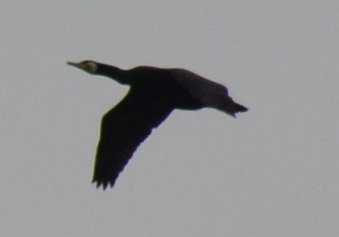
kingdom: Animalia
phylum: Chordata
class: Aves
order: Suliformes
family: Phalacrocoracidae
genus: Phalacrocorax
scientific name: Phalacrocorax carbo
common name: Great cormorant
